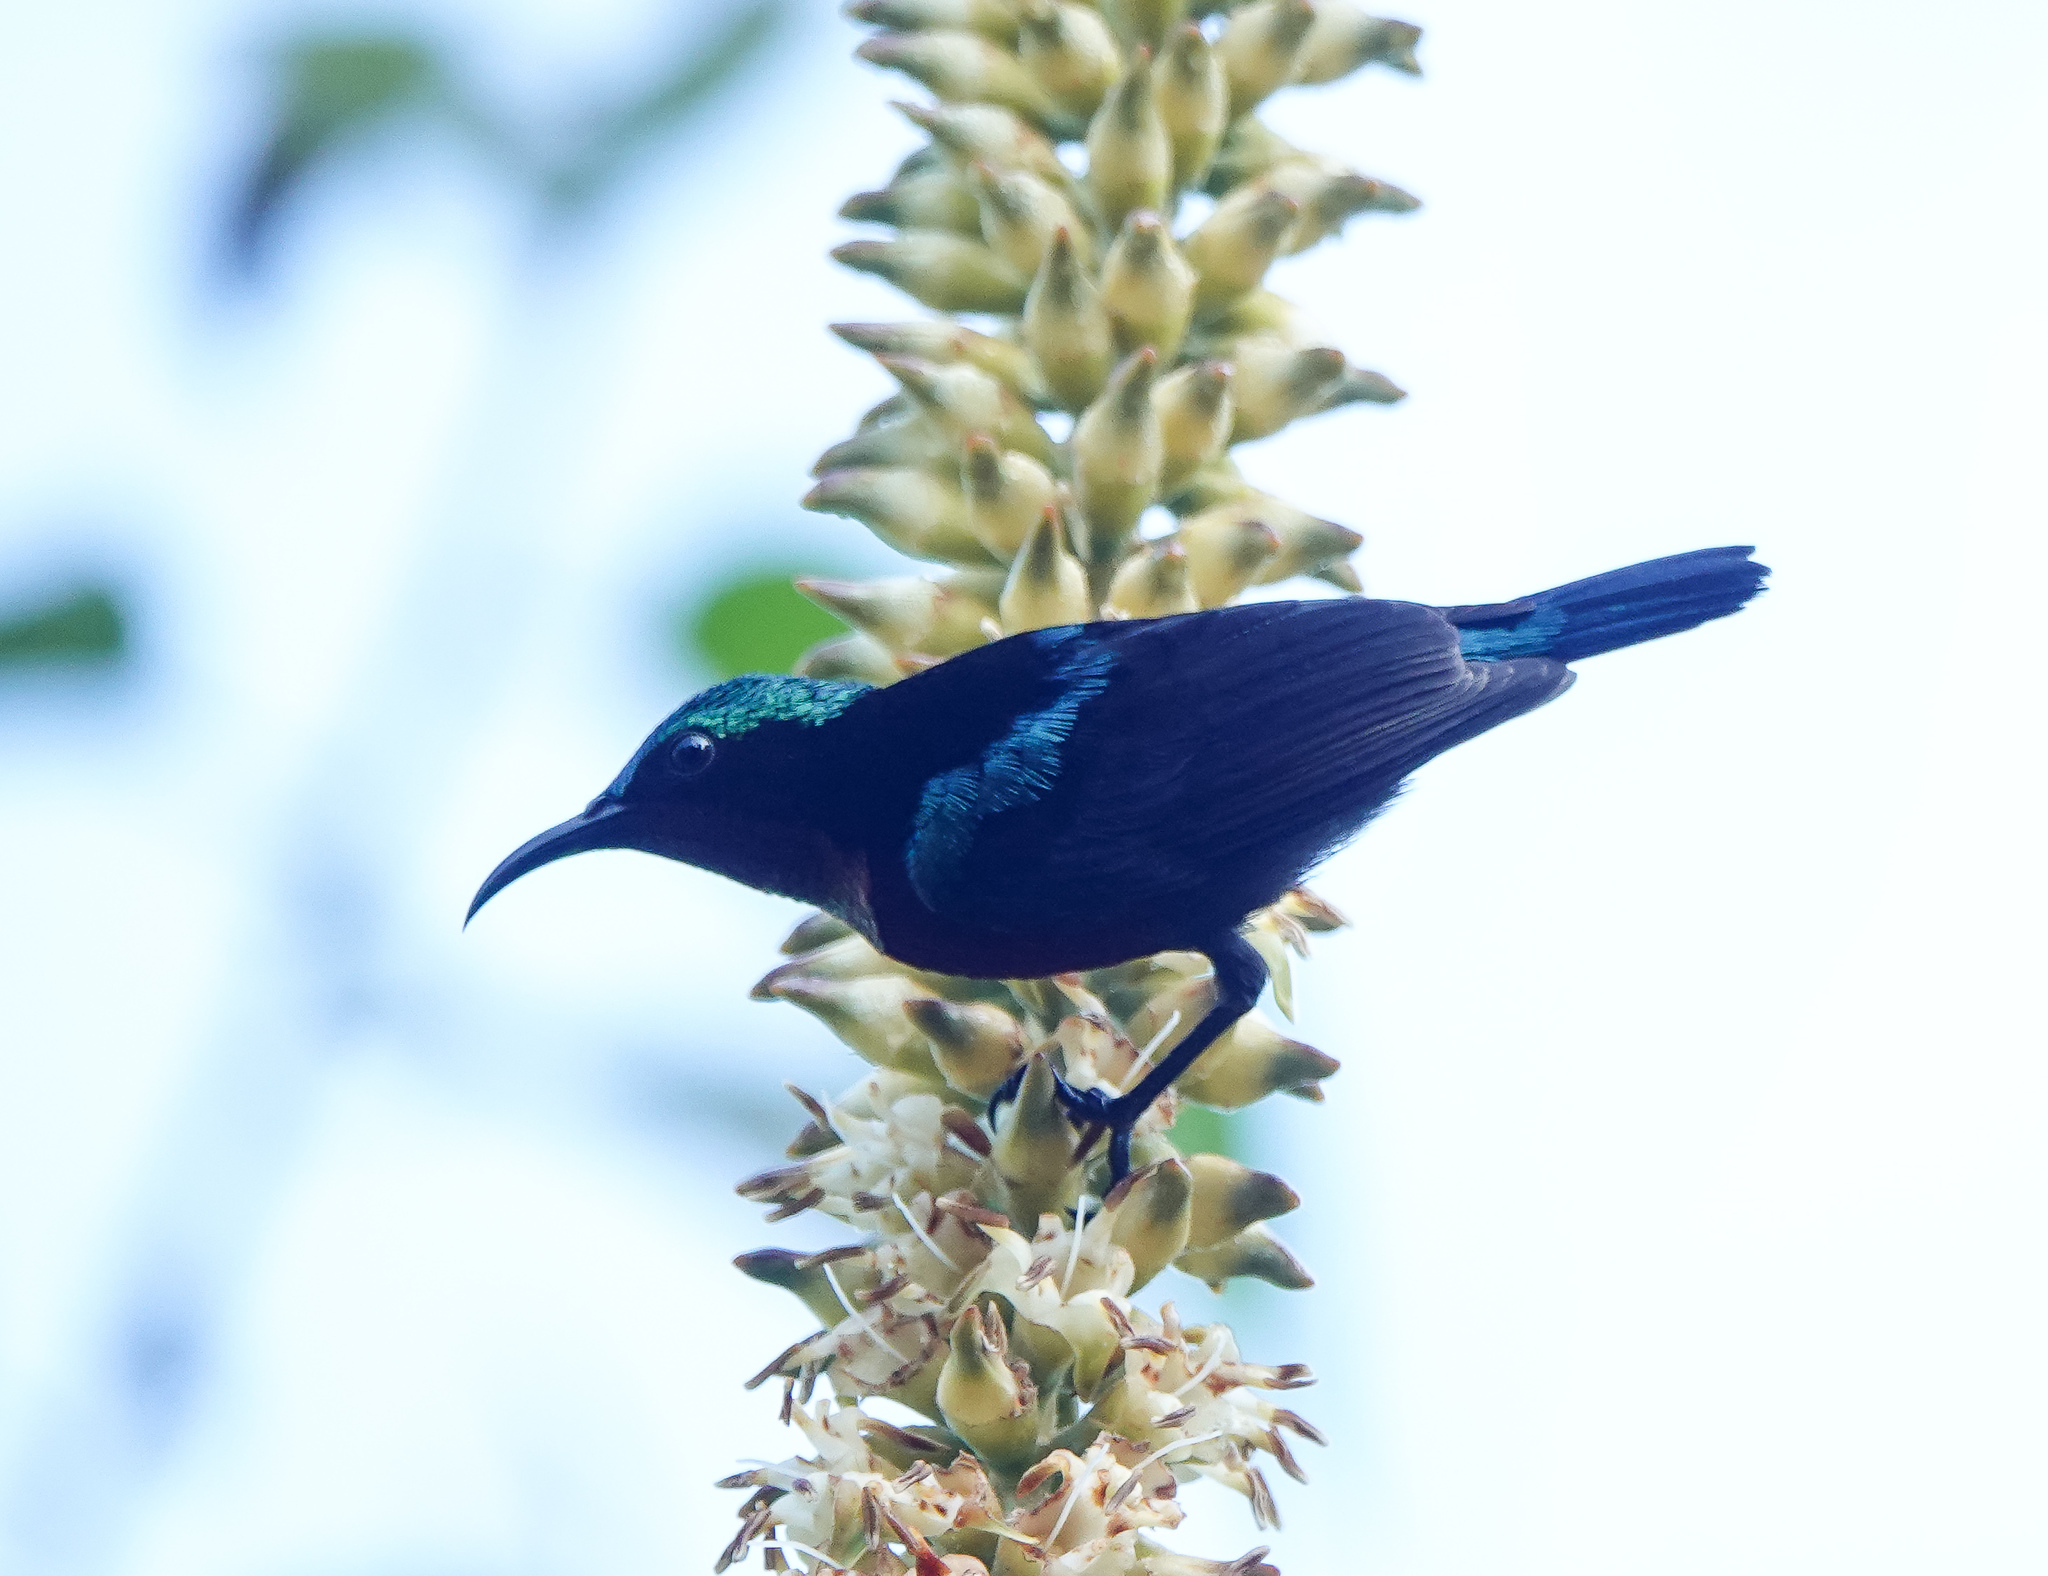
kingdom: Animalia
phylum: Chordata
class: Aves
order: Passeriformes
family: Nectariniidae
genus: Leptocoma
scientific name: Leptocoma brasiliana
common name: Van hasselt's sunbird
